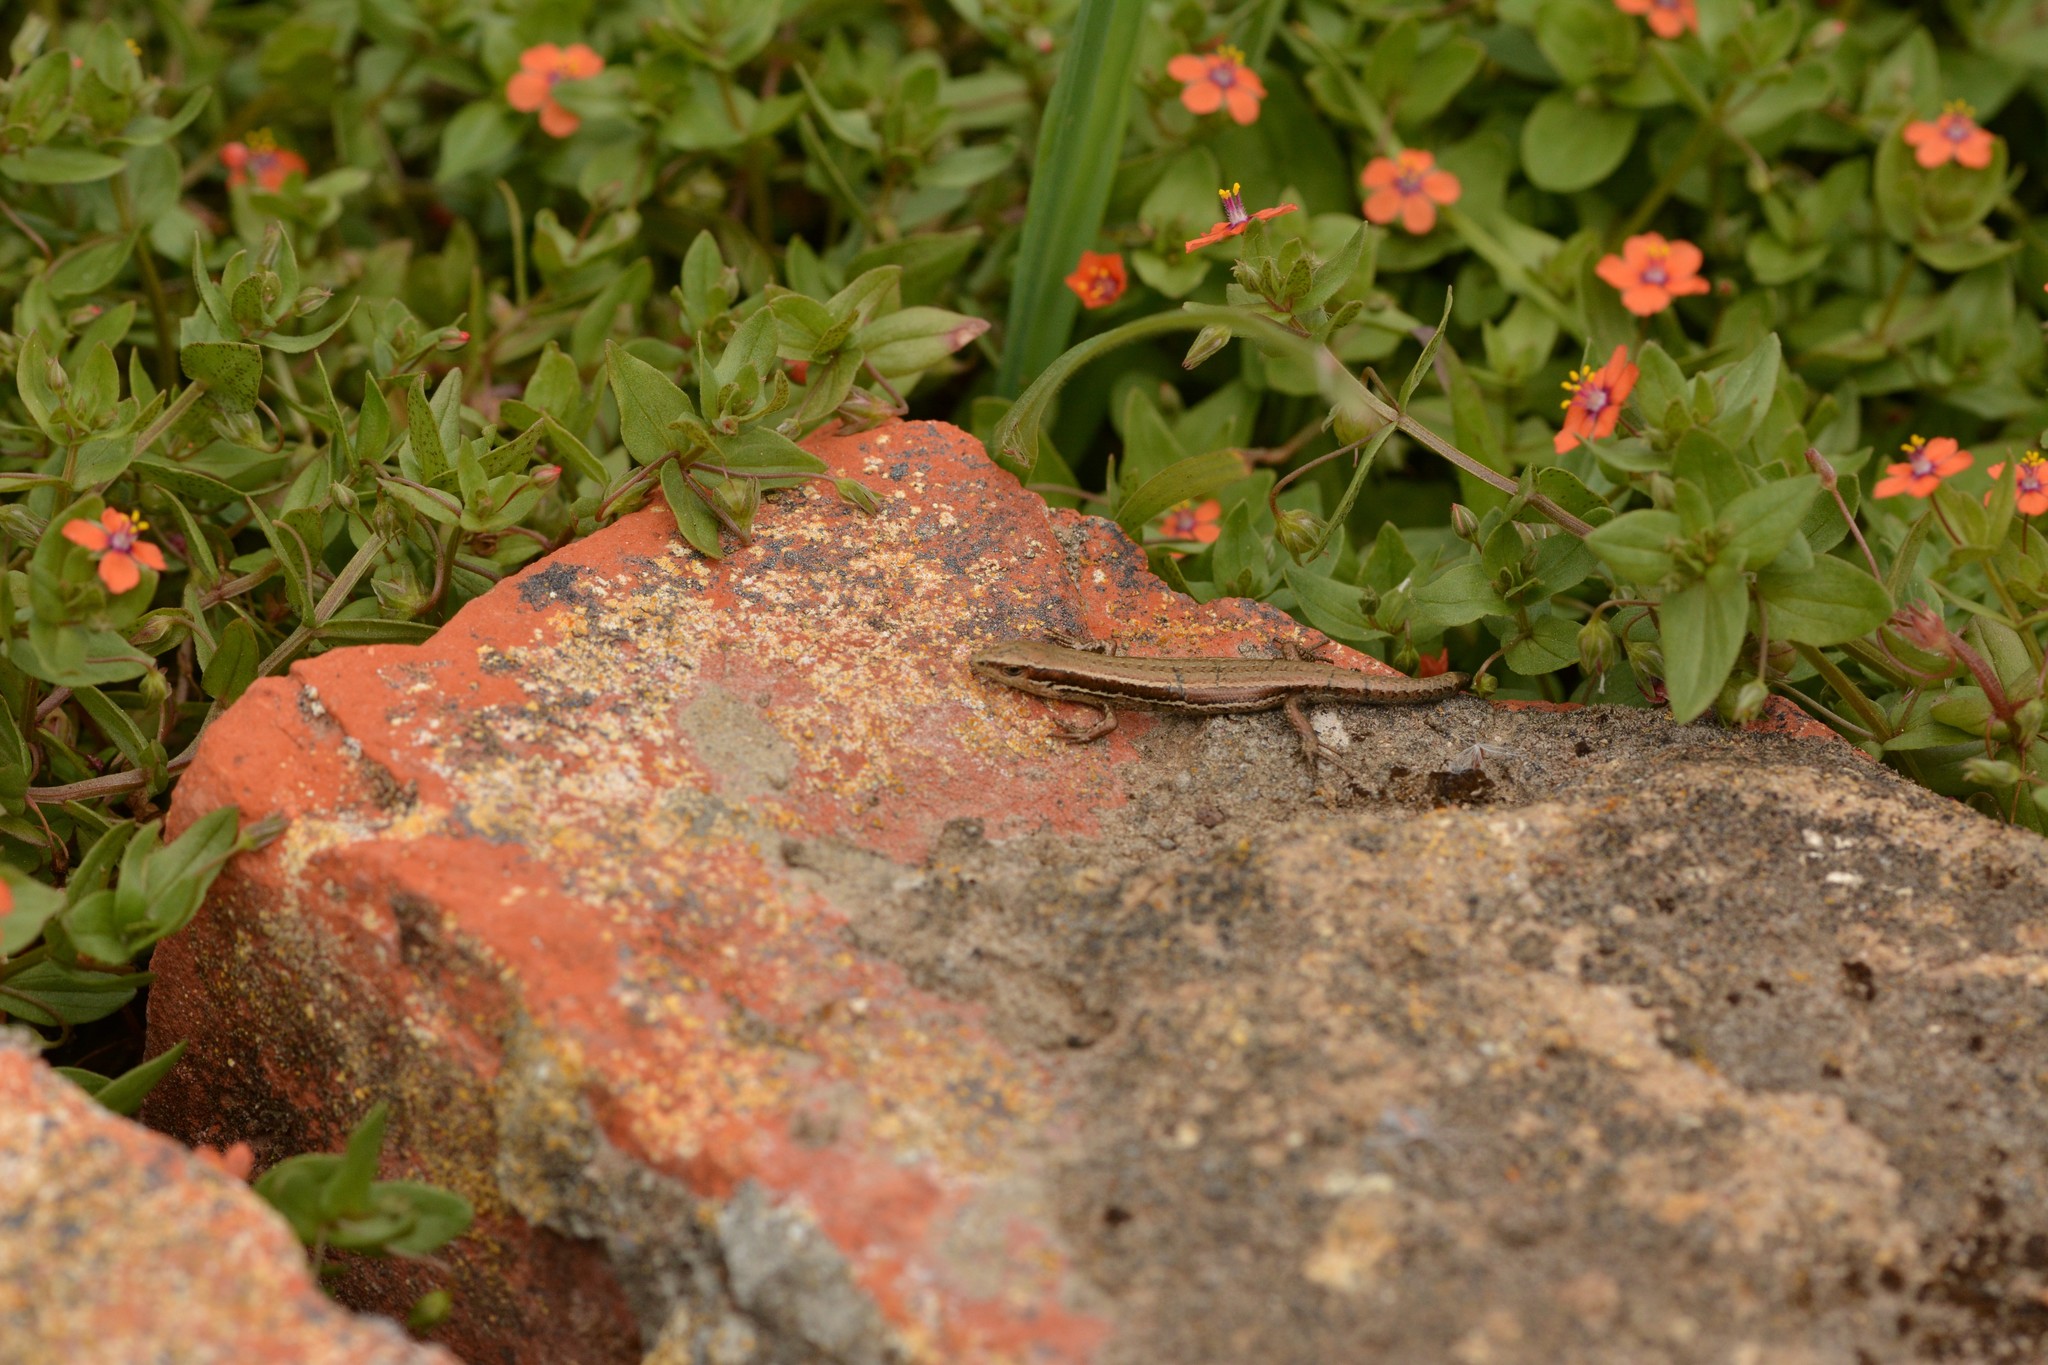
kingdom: Animalia
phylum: Chordata
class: Squamata
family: Scincidae
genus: Oligosoma
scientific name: Oligosoma polychroma
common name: Common new zealand skink
